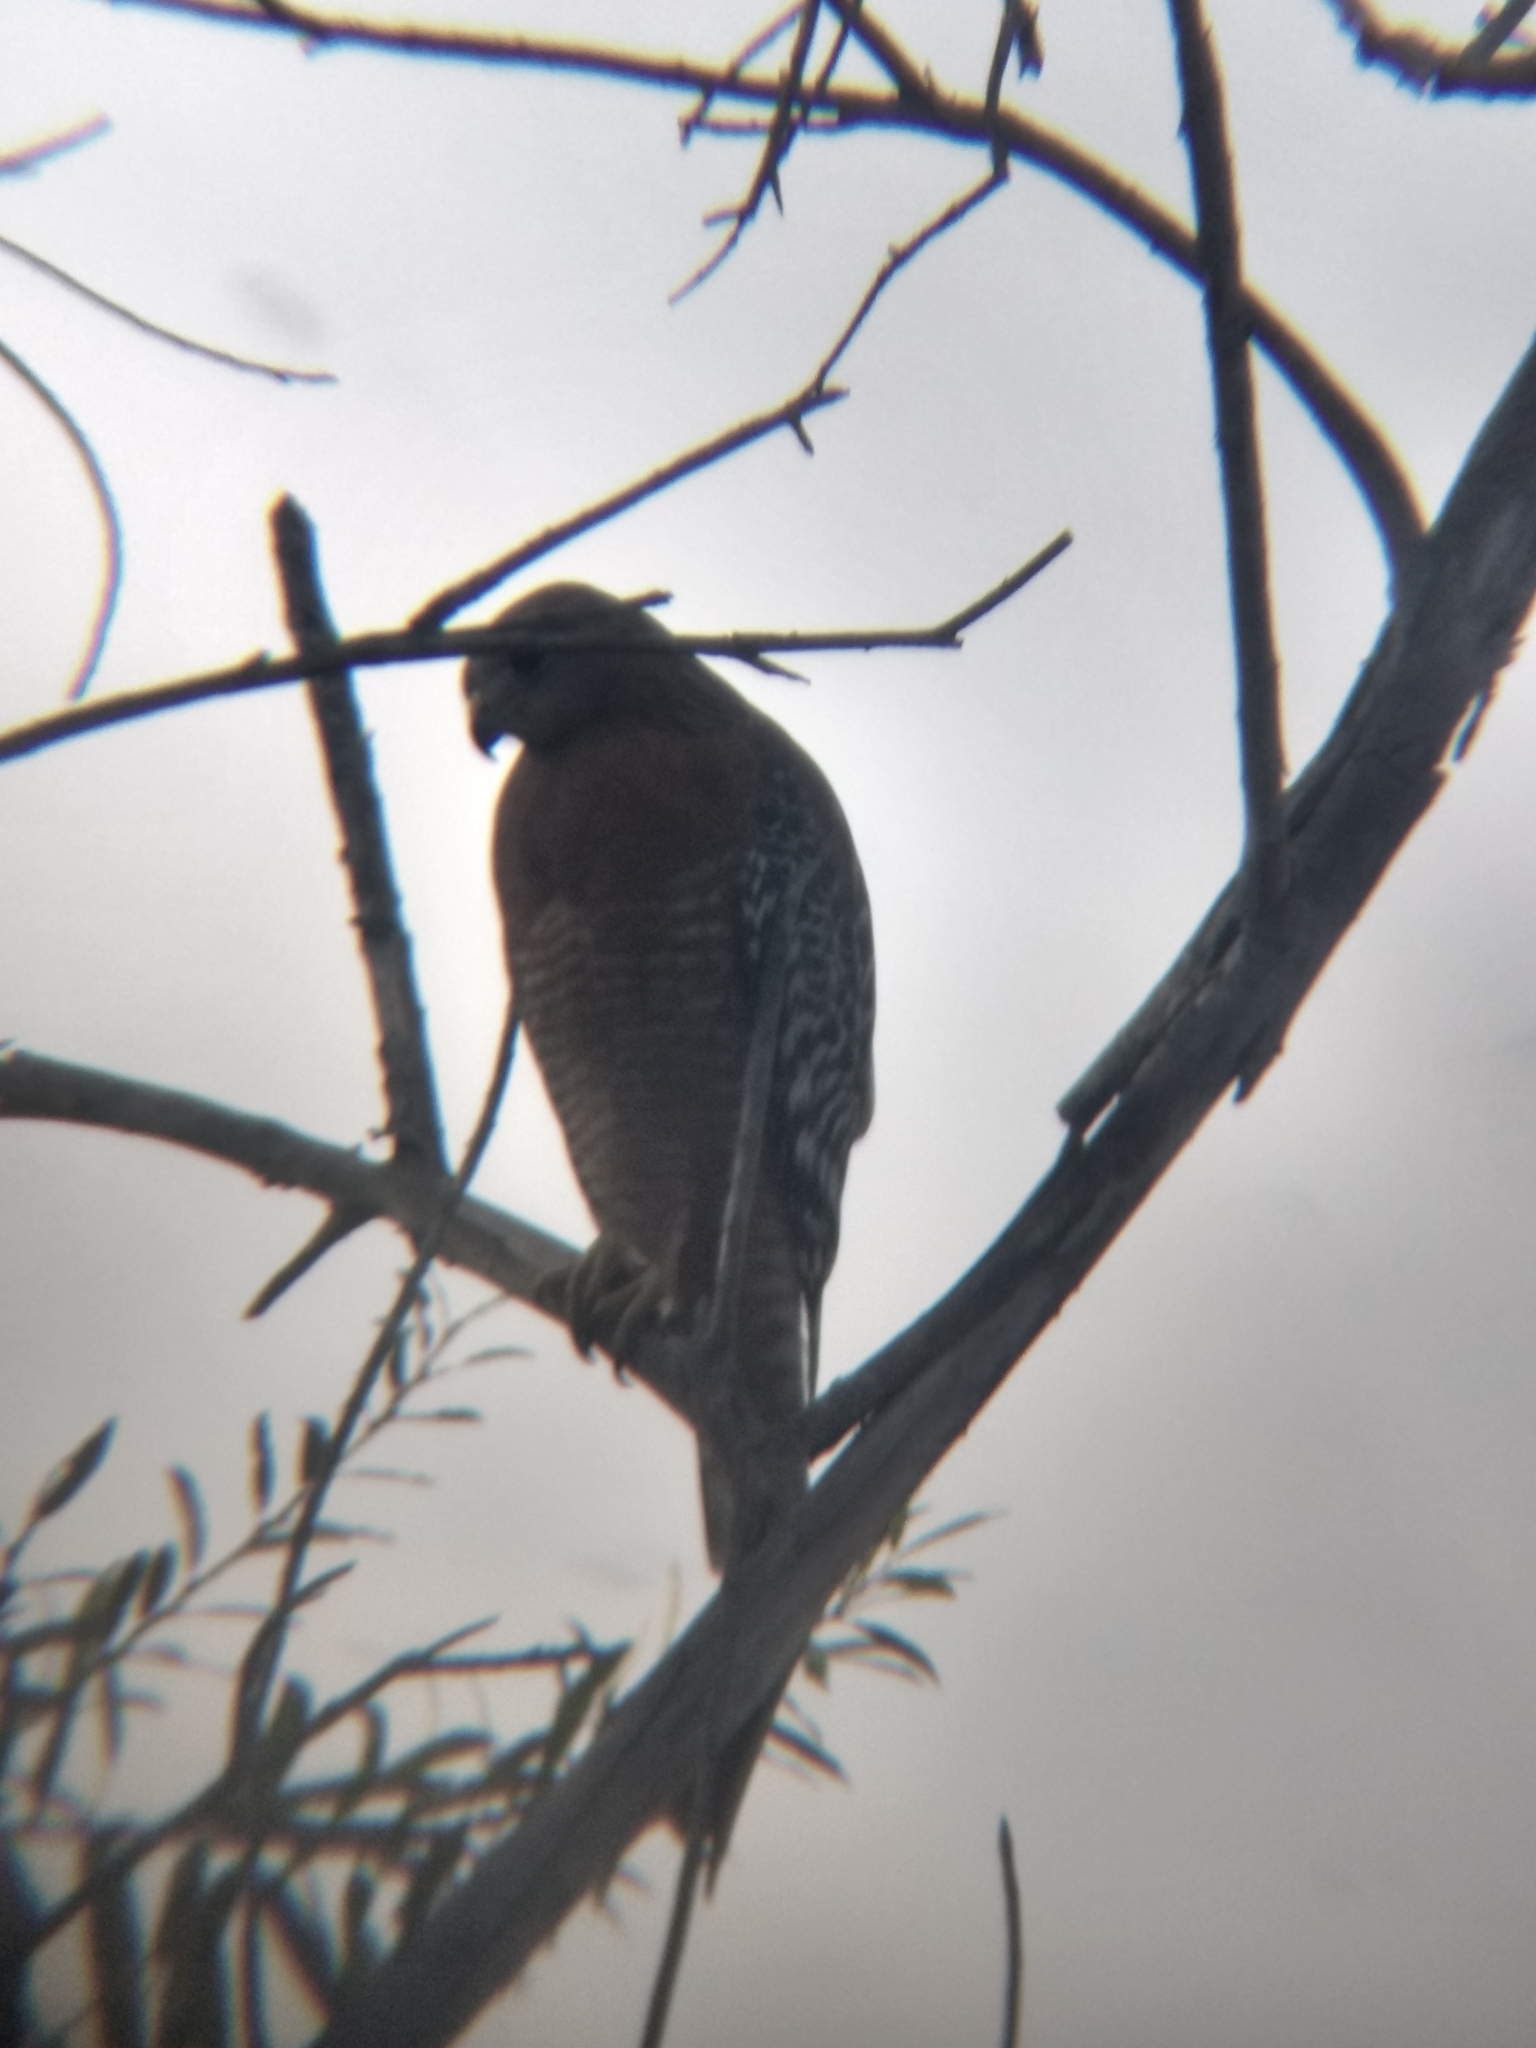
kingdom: Animalia
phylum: Chordata
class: Aves
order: Accipitriformes
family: Accipitridae
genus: Buteo
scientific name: Buteo lineatus
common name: Red-shouldered hawk
